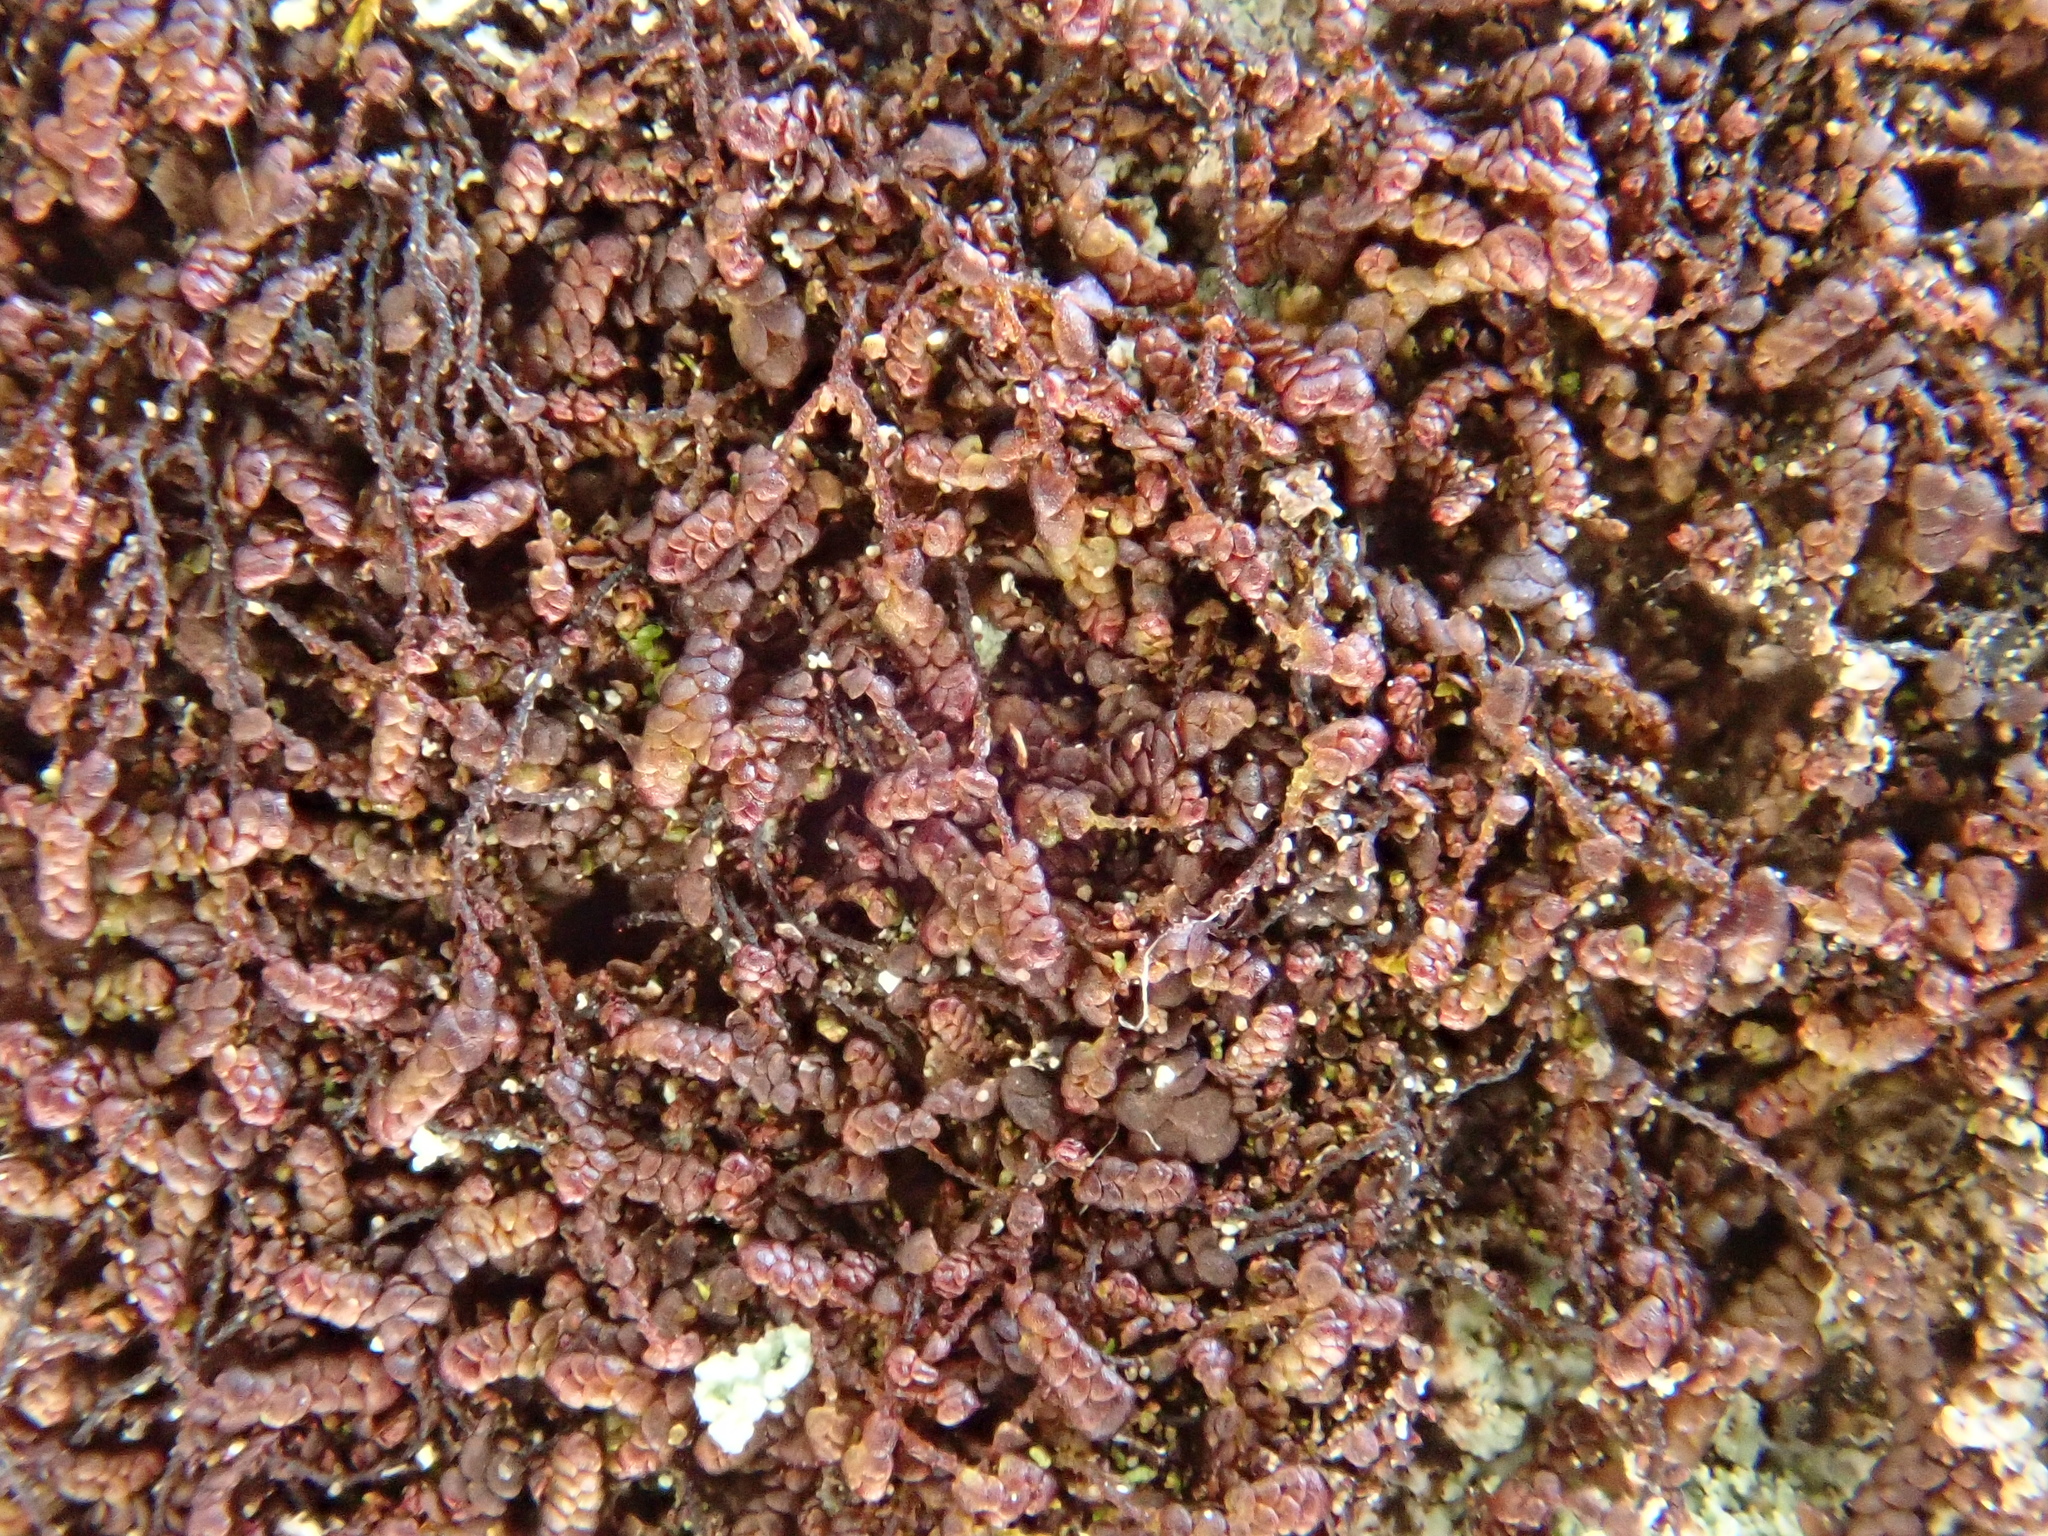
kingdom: Plantae
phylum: Marchantiophyta
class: Jungermanniopsida
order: Porellales
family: Frullaniaceae
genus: Frullania
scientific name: Frullania fragilifolia
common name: Spotty scalewort
